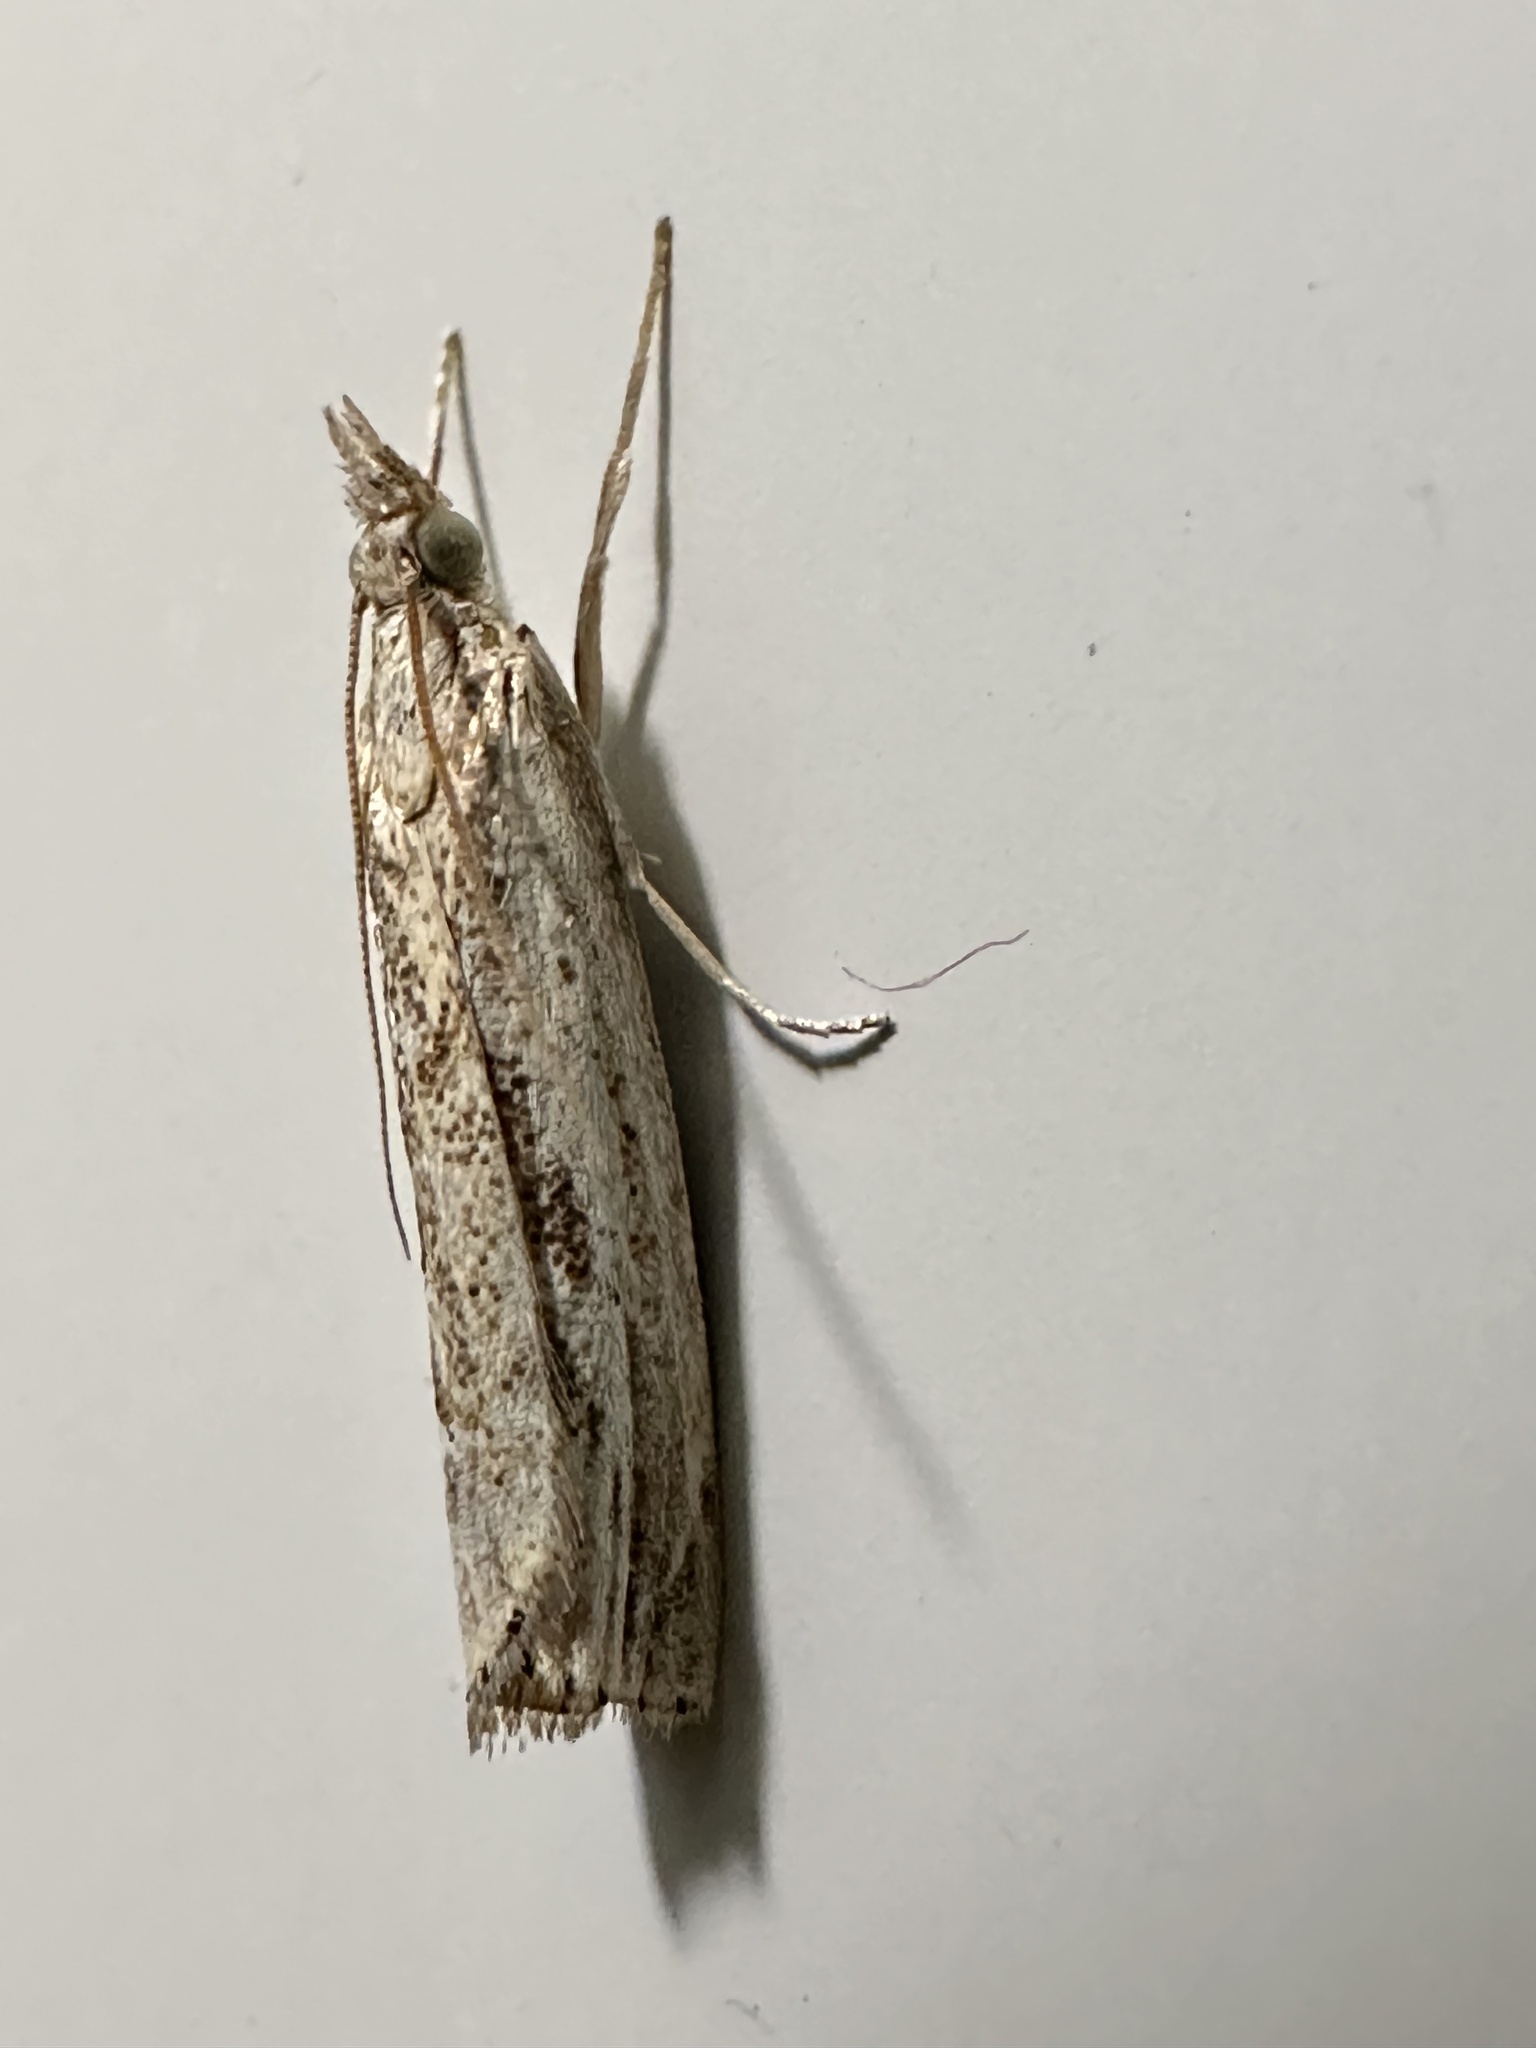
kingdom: Animalia
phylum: Arthropoda
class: Insecta
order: Lepidoptera
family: Crambidae
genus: Agriphila
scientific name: Agriphila tolli
